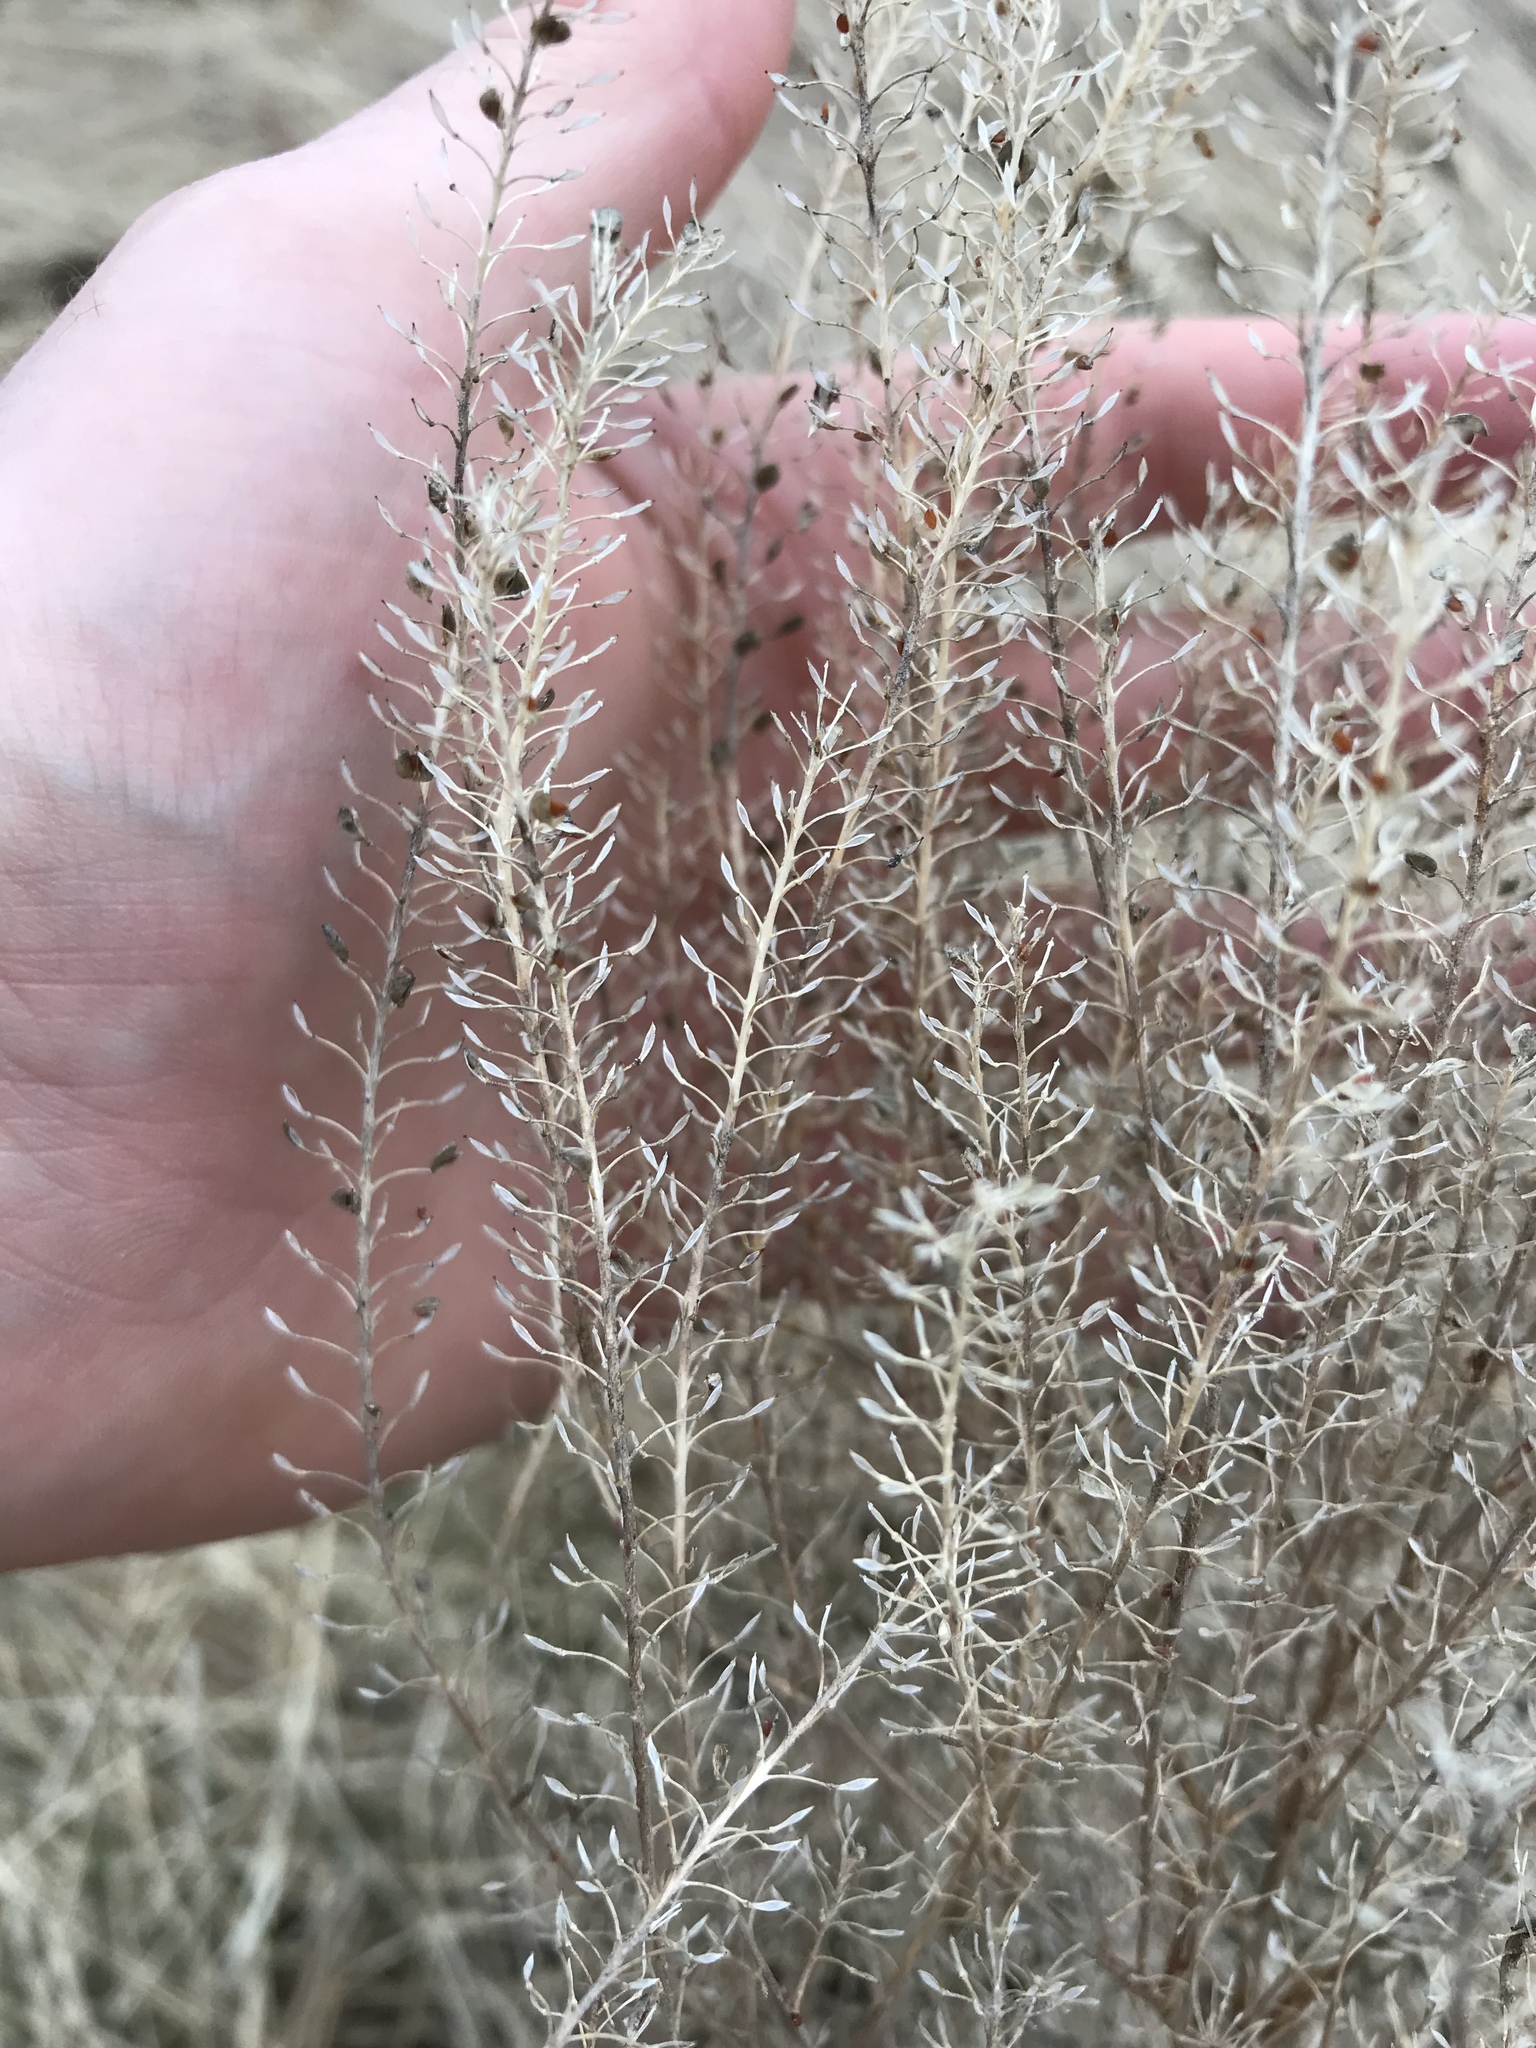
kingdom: Plantae
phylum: Tracheophyta
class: Magnoliopsida
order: Brassicales
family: Brassicaceae
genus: Lepidium
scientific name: Lepidium densiflorum
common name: Miner's pepperwort
